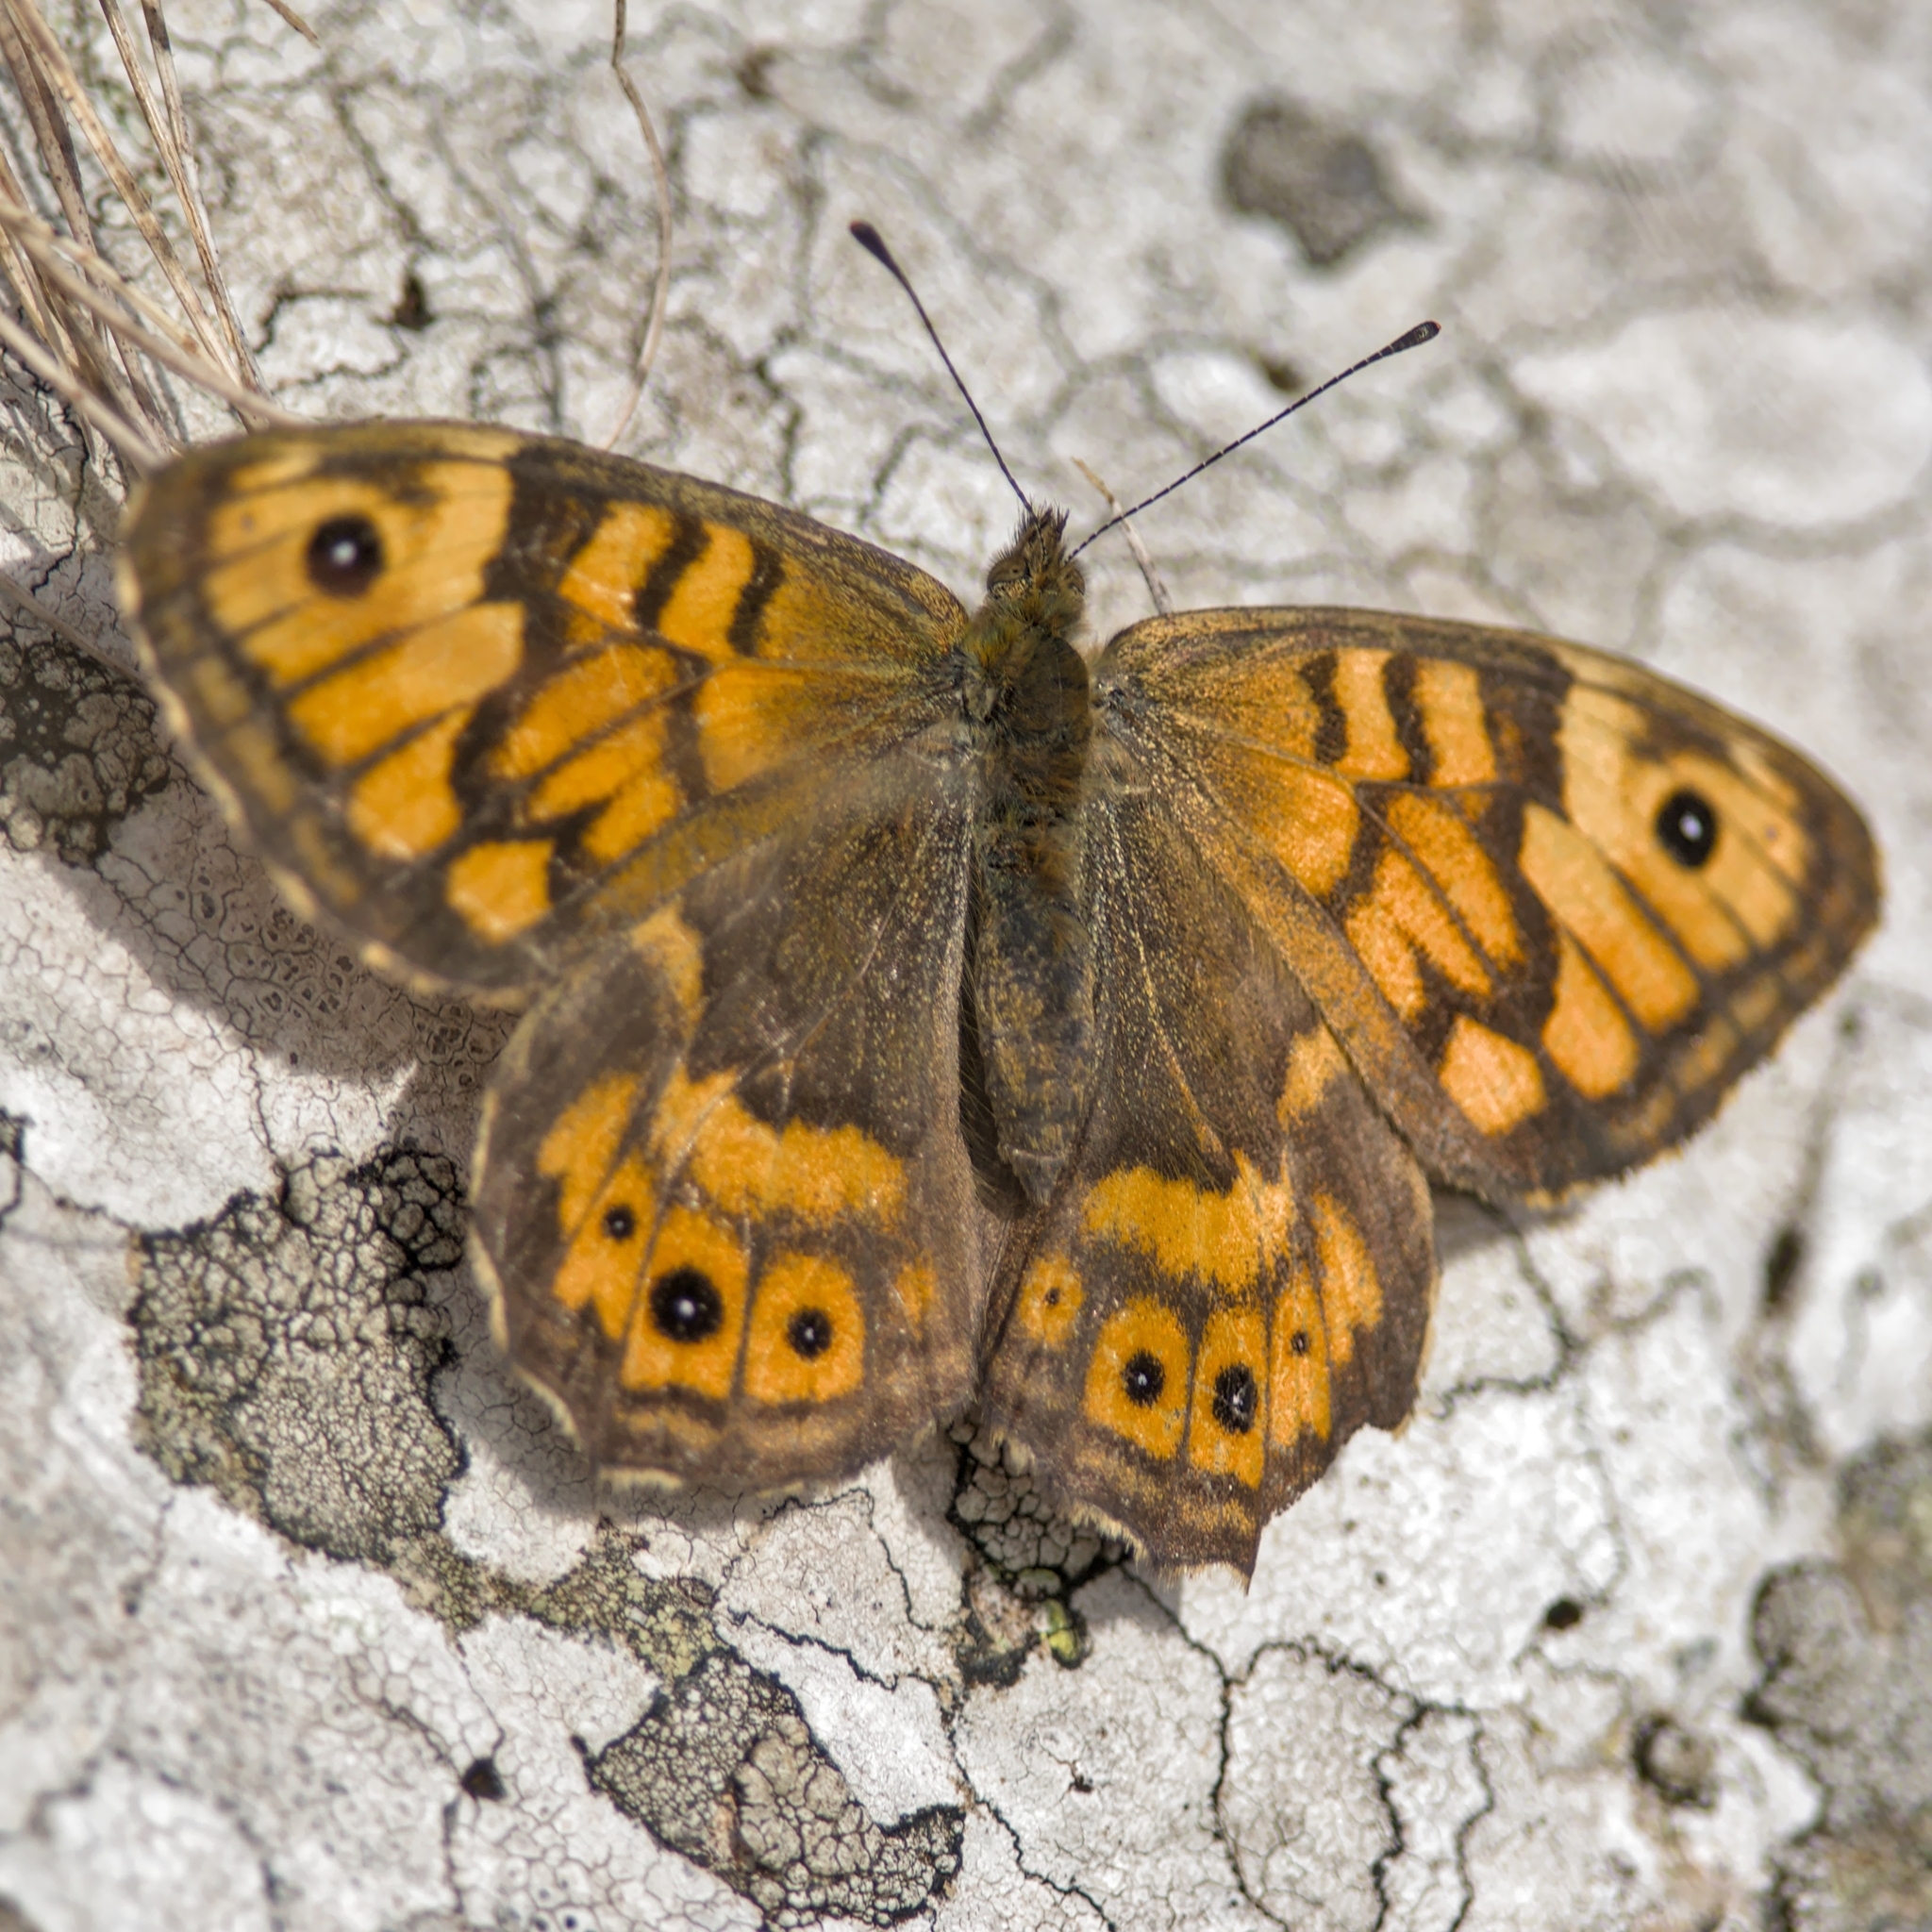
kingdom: Animalia
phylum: Arthropoda
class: Insecta
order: Lepidoptera
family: Nymphalidae
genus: Pararge
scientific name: Pararge Lasiommata megera
